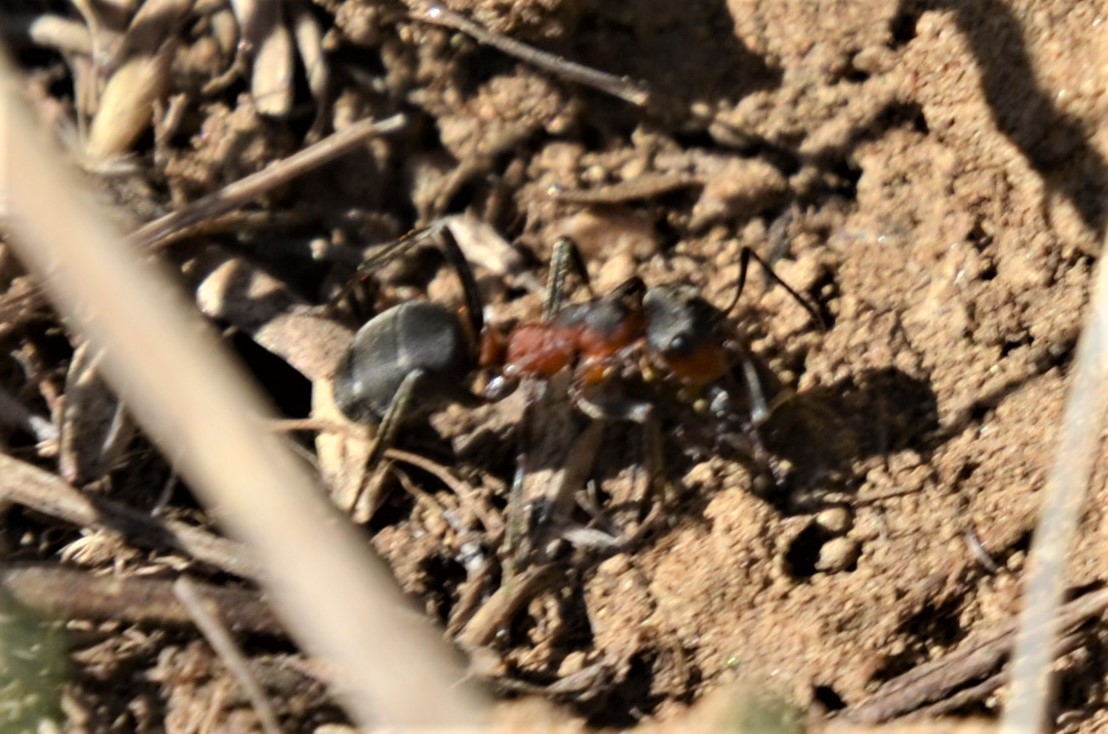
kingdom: Animalia
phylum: Arthropoda
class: Insecta
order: Hymenoptera
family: Formicidae
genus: Formica
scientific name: Formica pratensis
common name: European red wood ant
